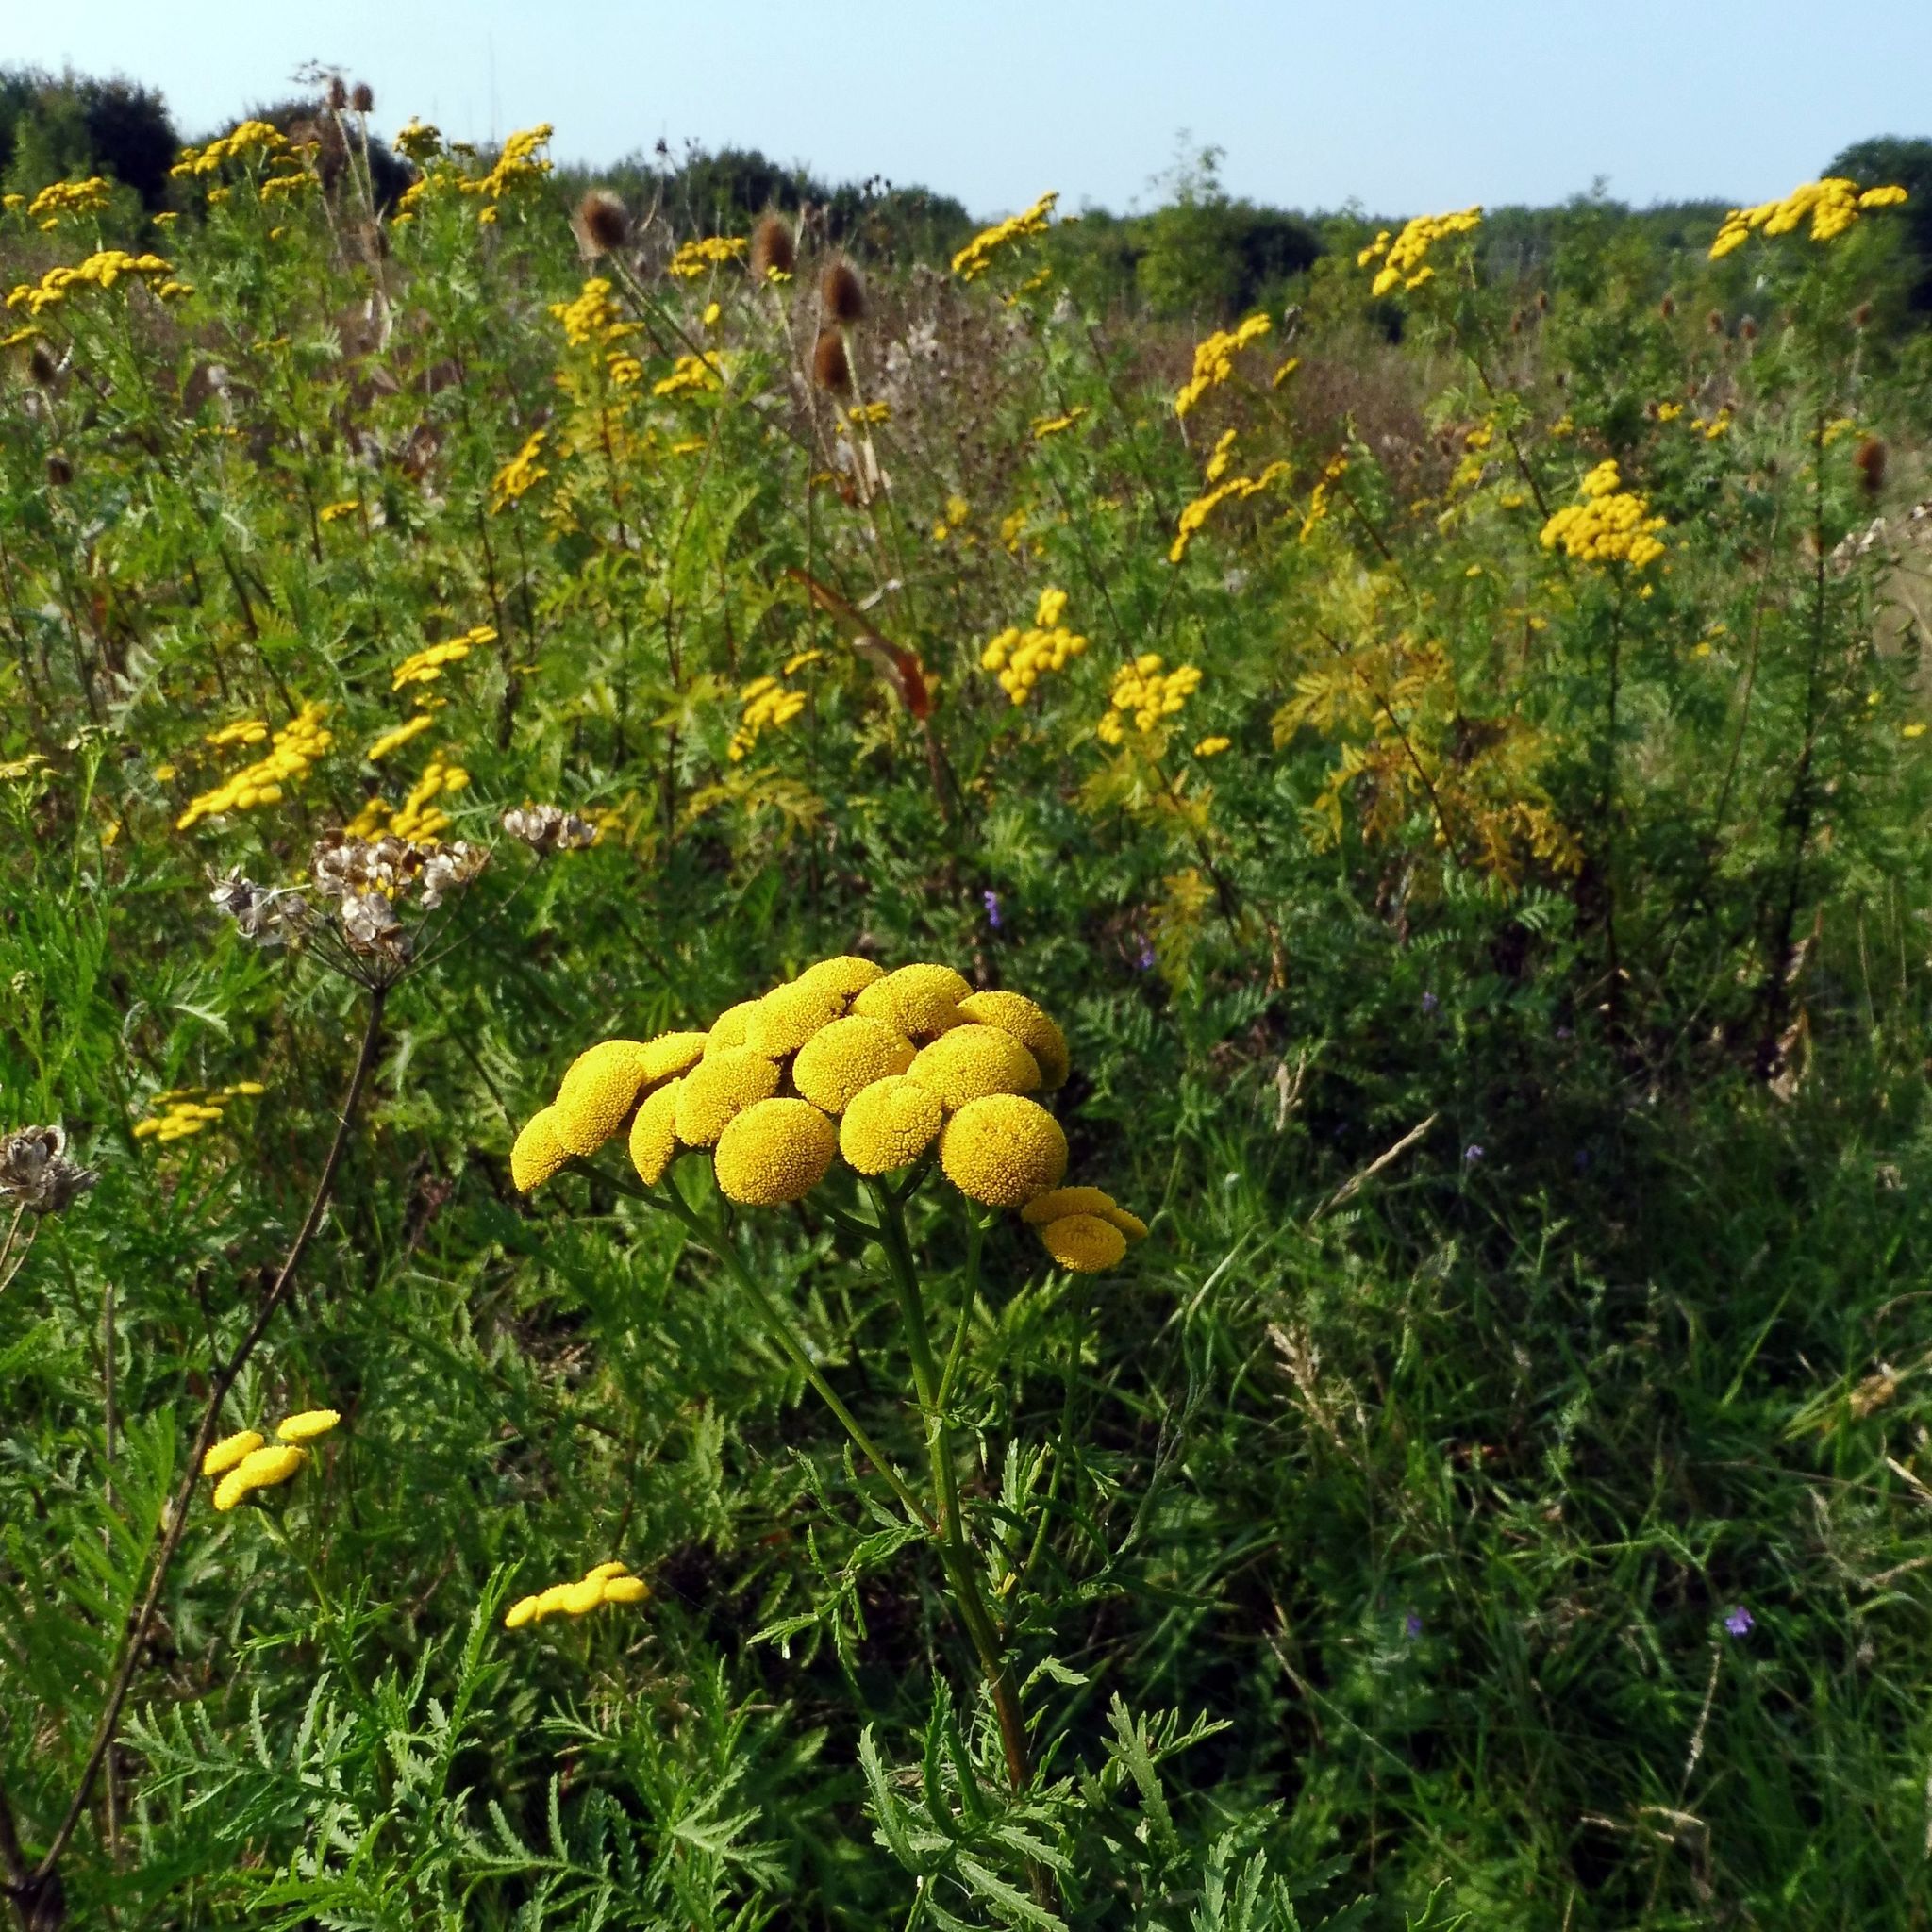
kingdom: Plantae
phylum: Tracheophyta
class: Magnoliopsida
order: Asterales
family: Asteraceae
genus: Tanacetum
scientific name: Tanacetum vulgare
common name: Common tansy
